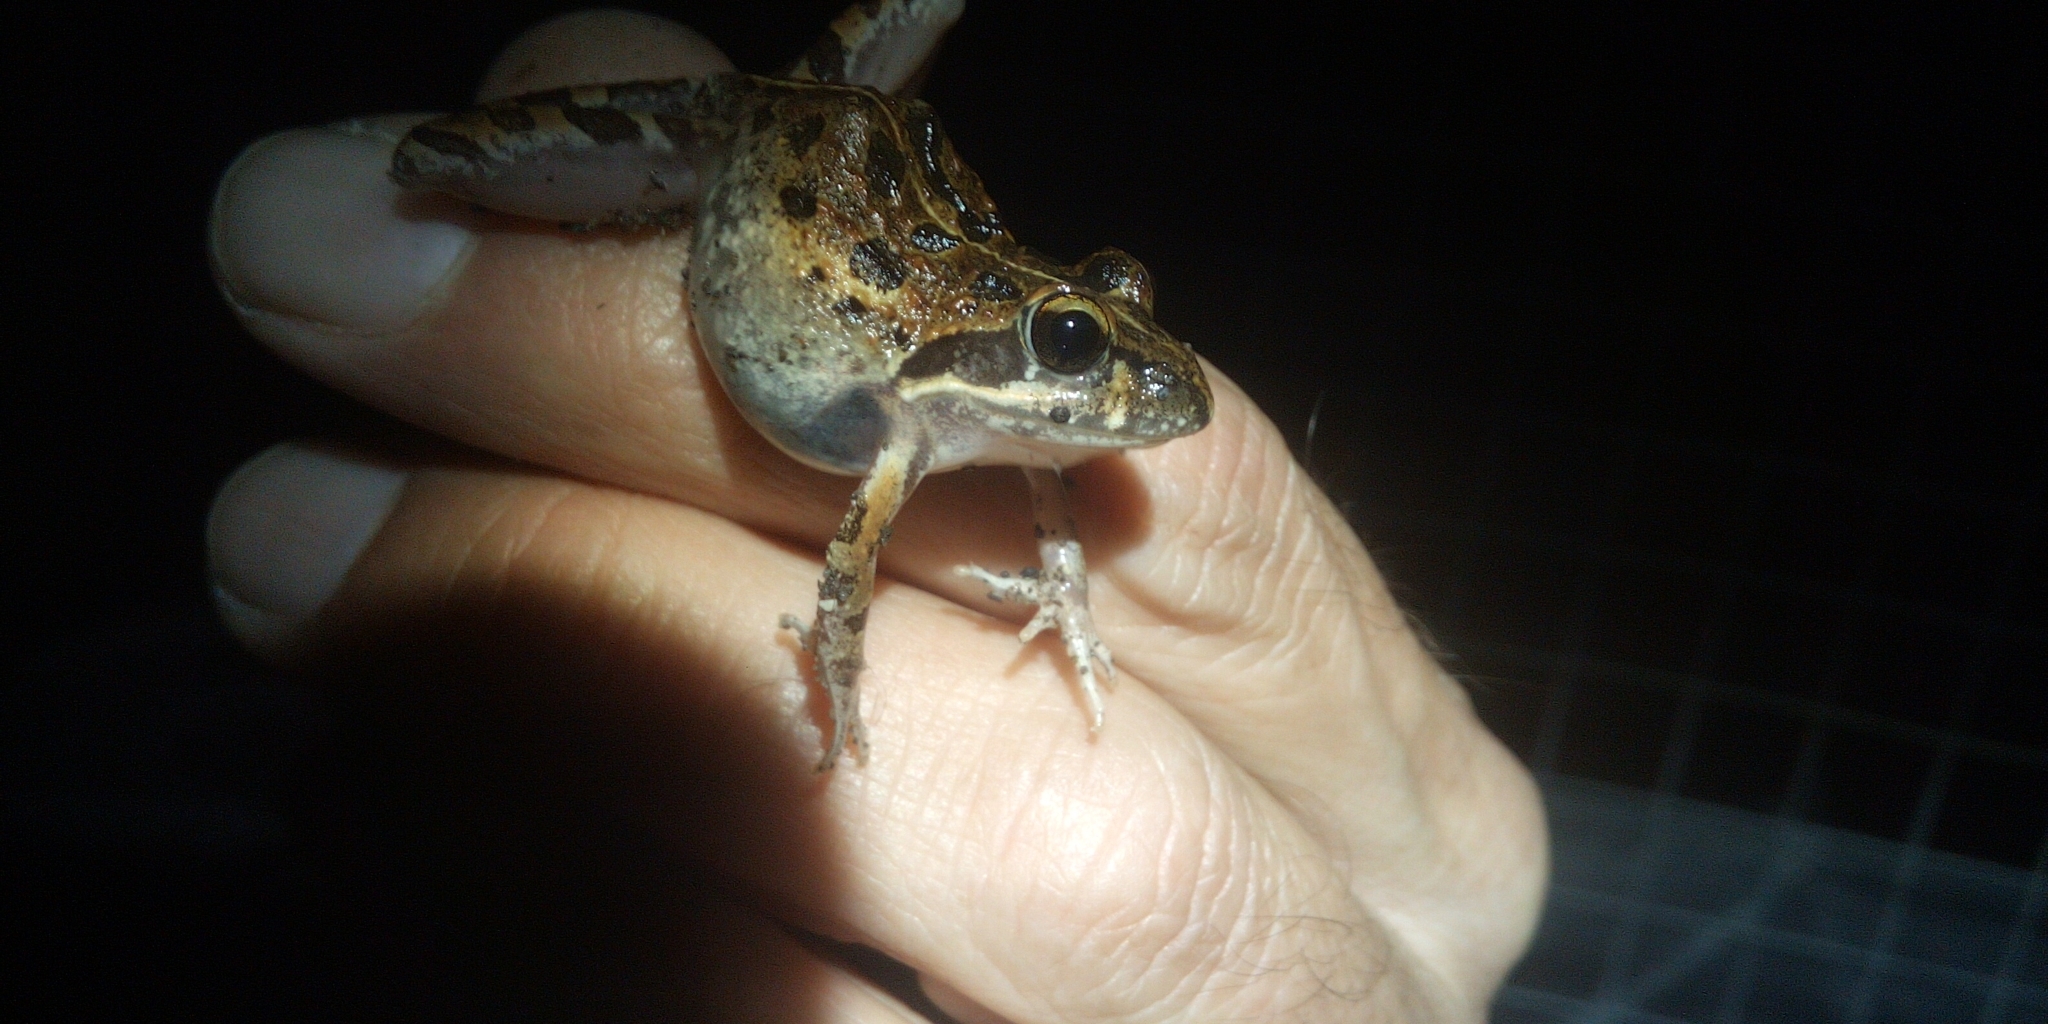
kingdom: Animalia
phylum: Chordata
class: Amphibia
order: Anura
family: Pyxicephalidae
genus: Strongylopus
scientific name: Strongylopus grayii
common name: Gray's stream frog
